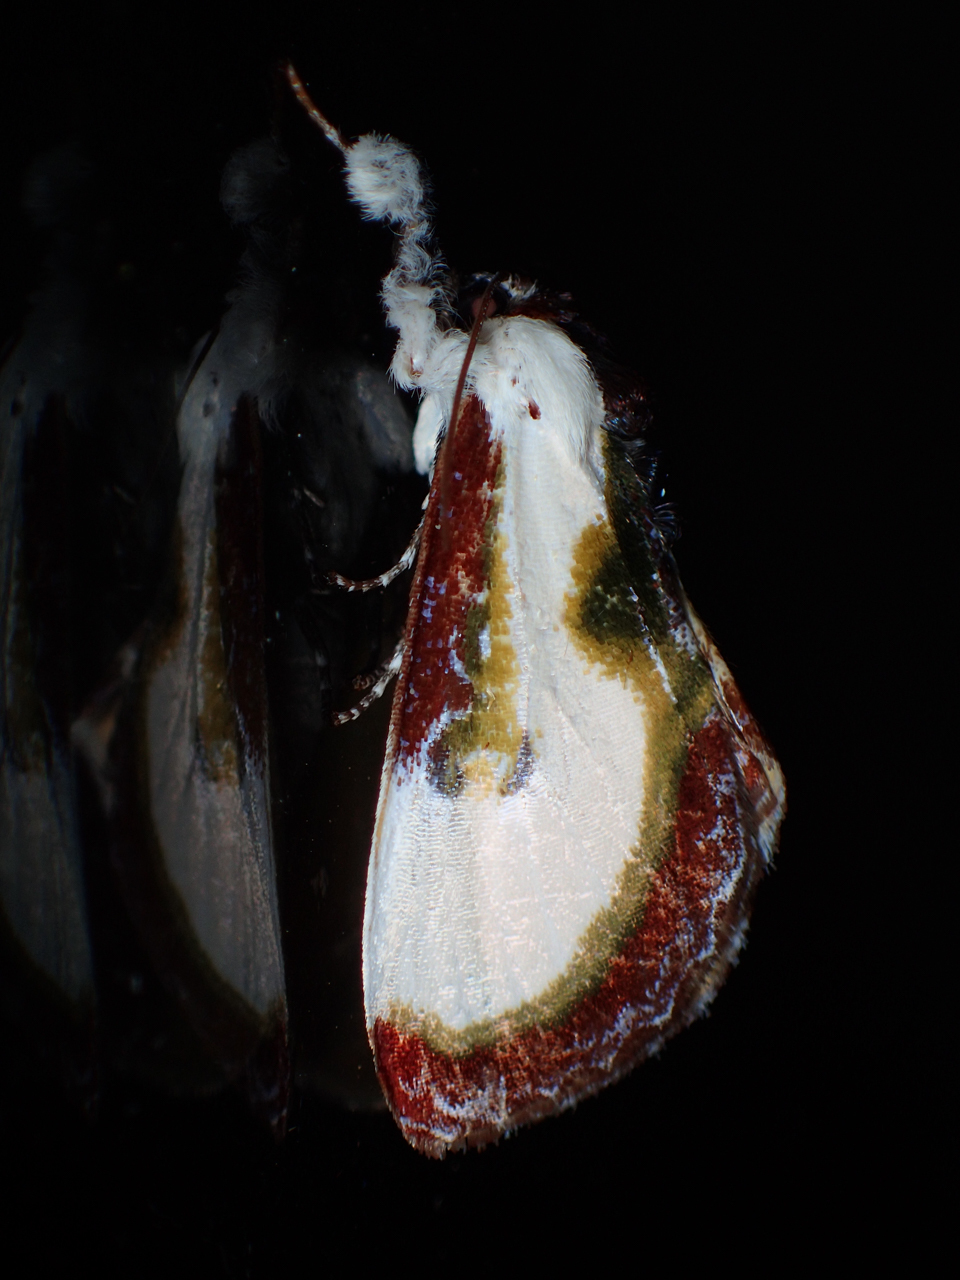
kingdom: Animalia
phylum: Arthropoda
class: Insecta
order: Lepidoptera
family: Noctuidae
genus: Eudryas
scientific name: Eudryas grata
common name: Beautiful wood-nymph
